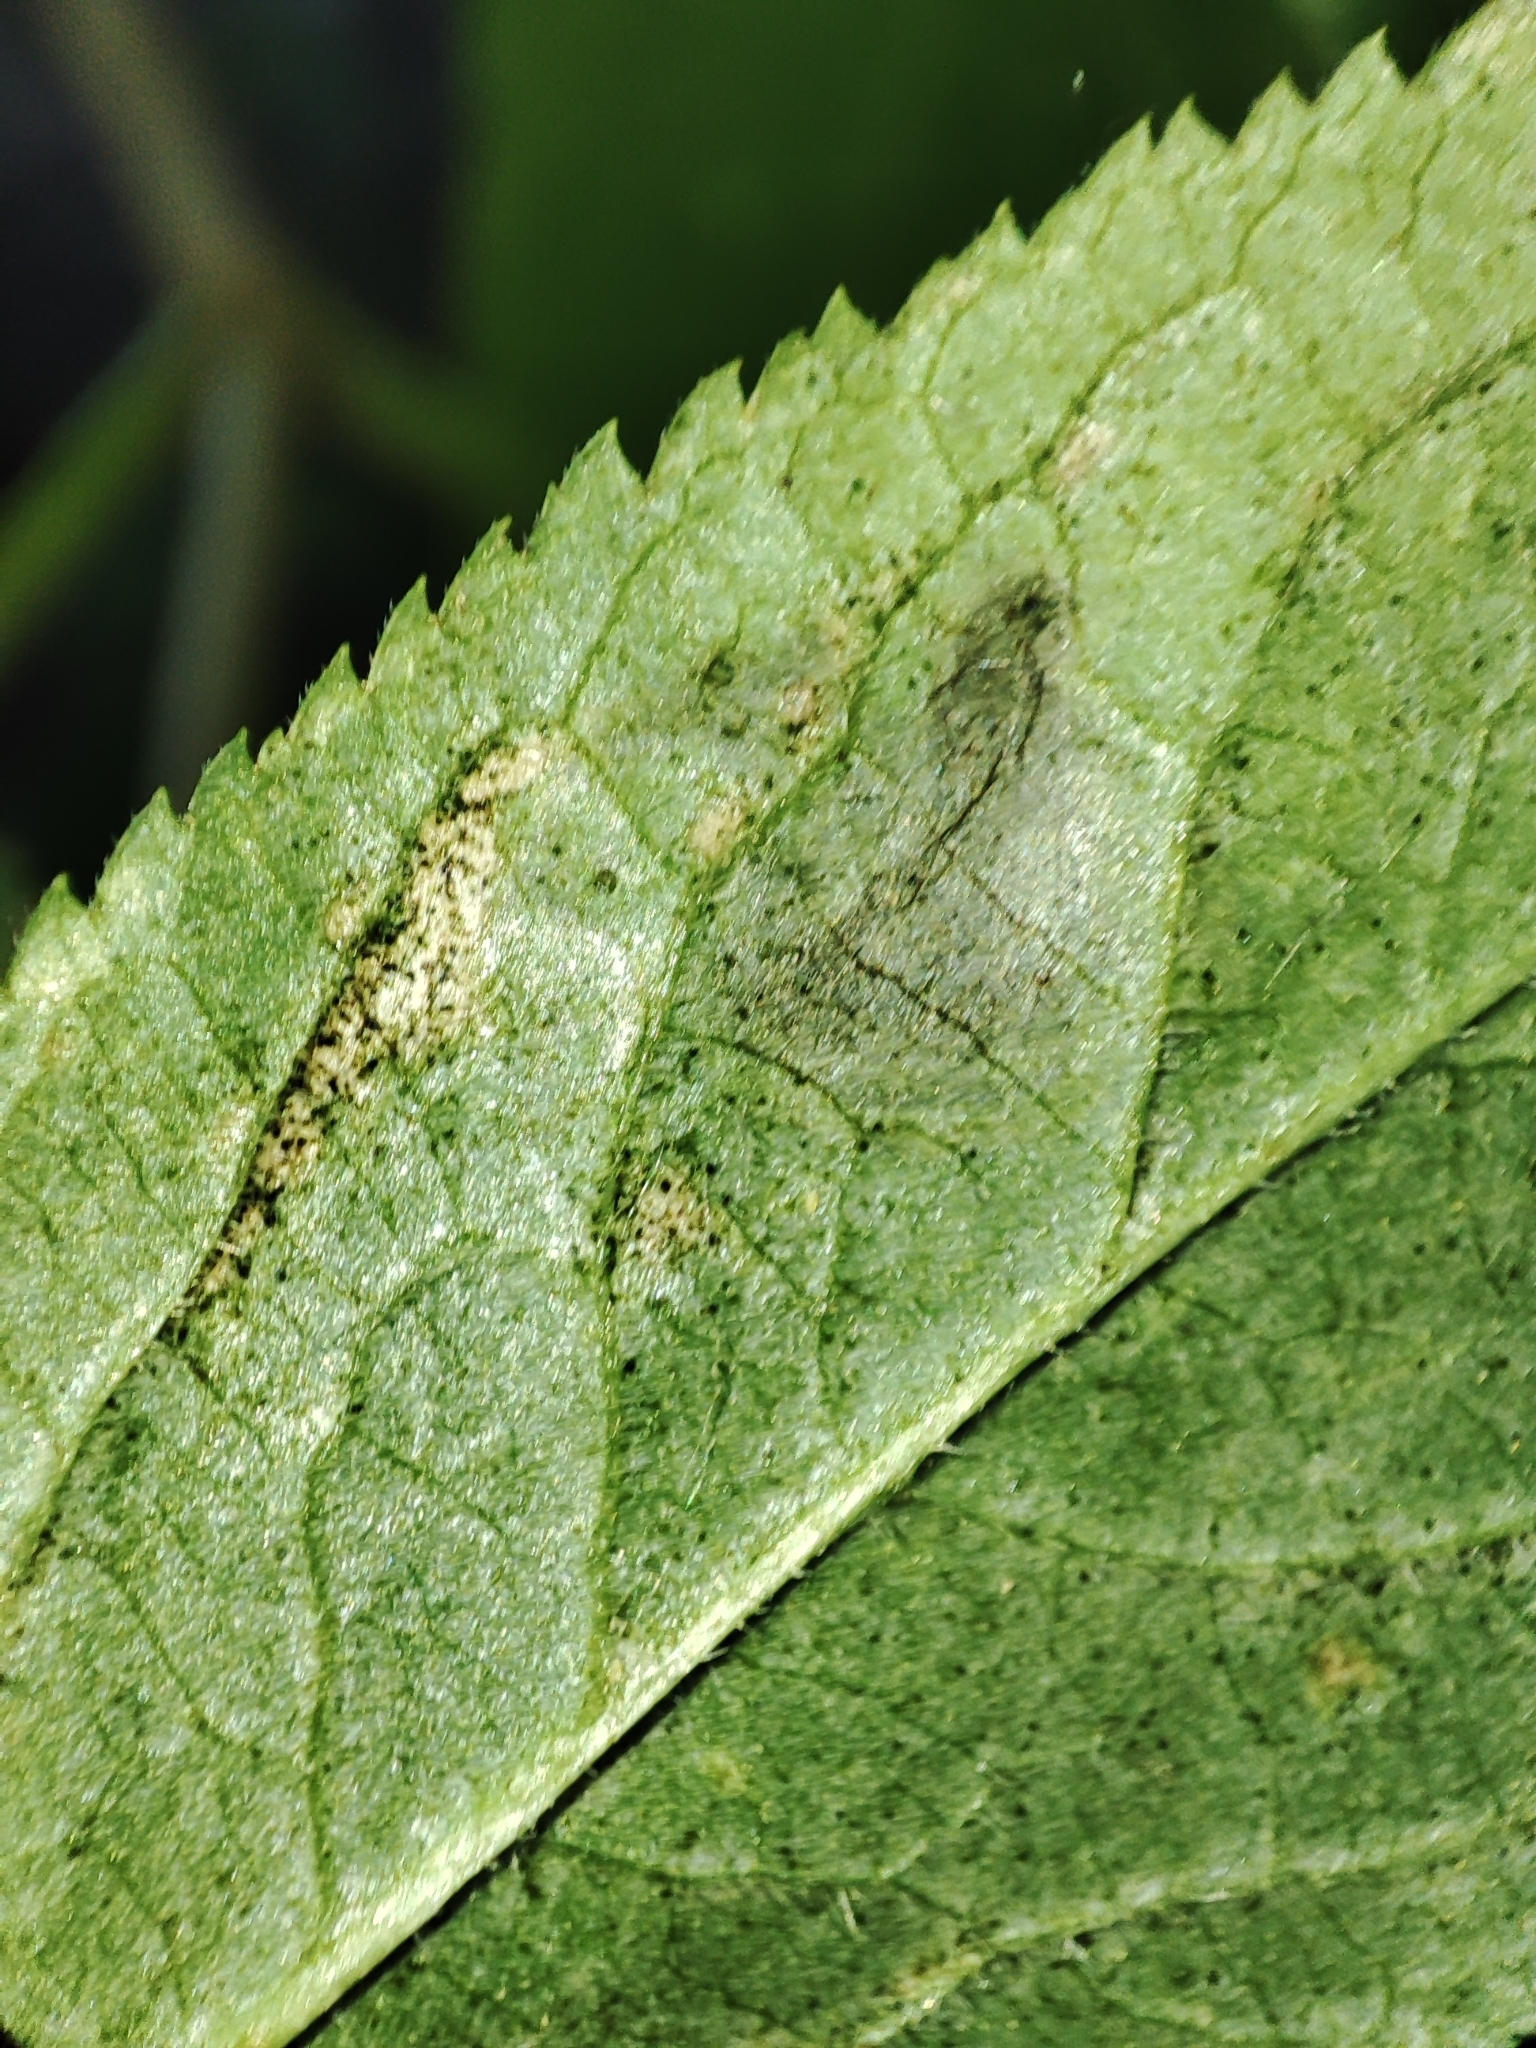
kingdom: Plantae
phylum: Tracheophyta
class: Magnoliopsida
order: Dipsacales
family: Viburnaceae
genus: Sambucus
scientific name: Sambucus nigra
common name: Elder
